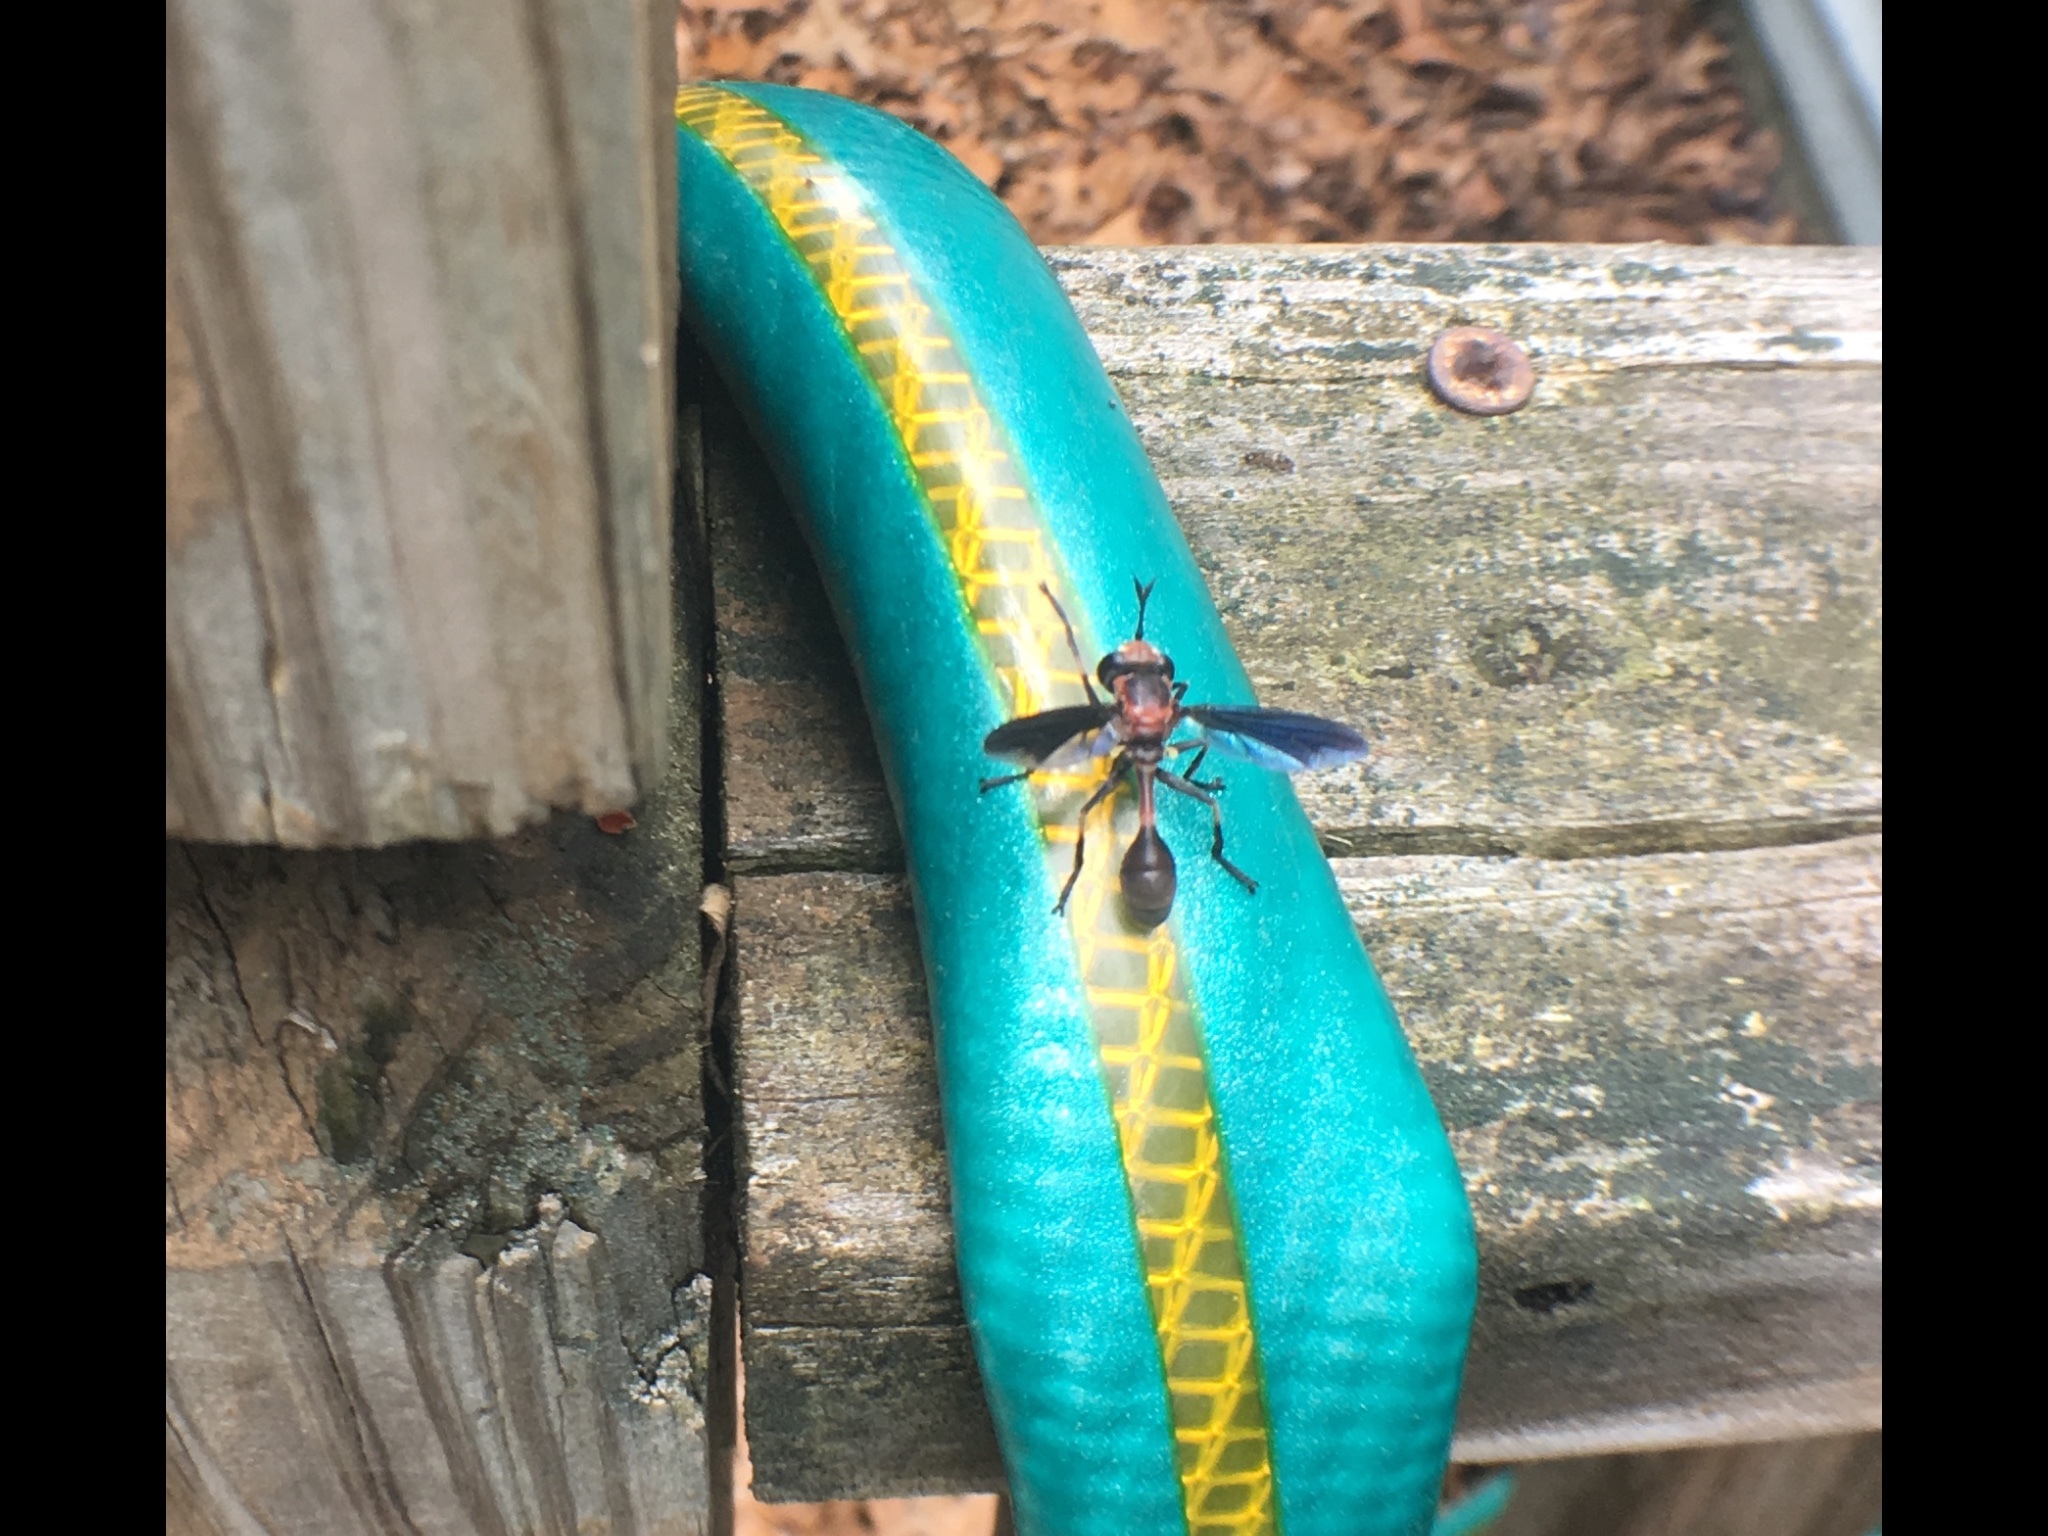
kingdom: Animalia
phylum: Arthropoda
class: Insecta
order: Diptera
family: Conopidae
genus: Physocephala
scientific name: Physocephala tibialis
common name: Common eastern physocephala
